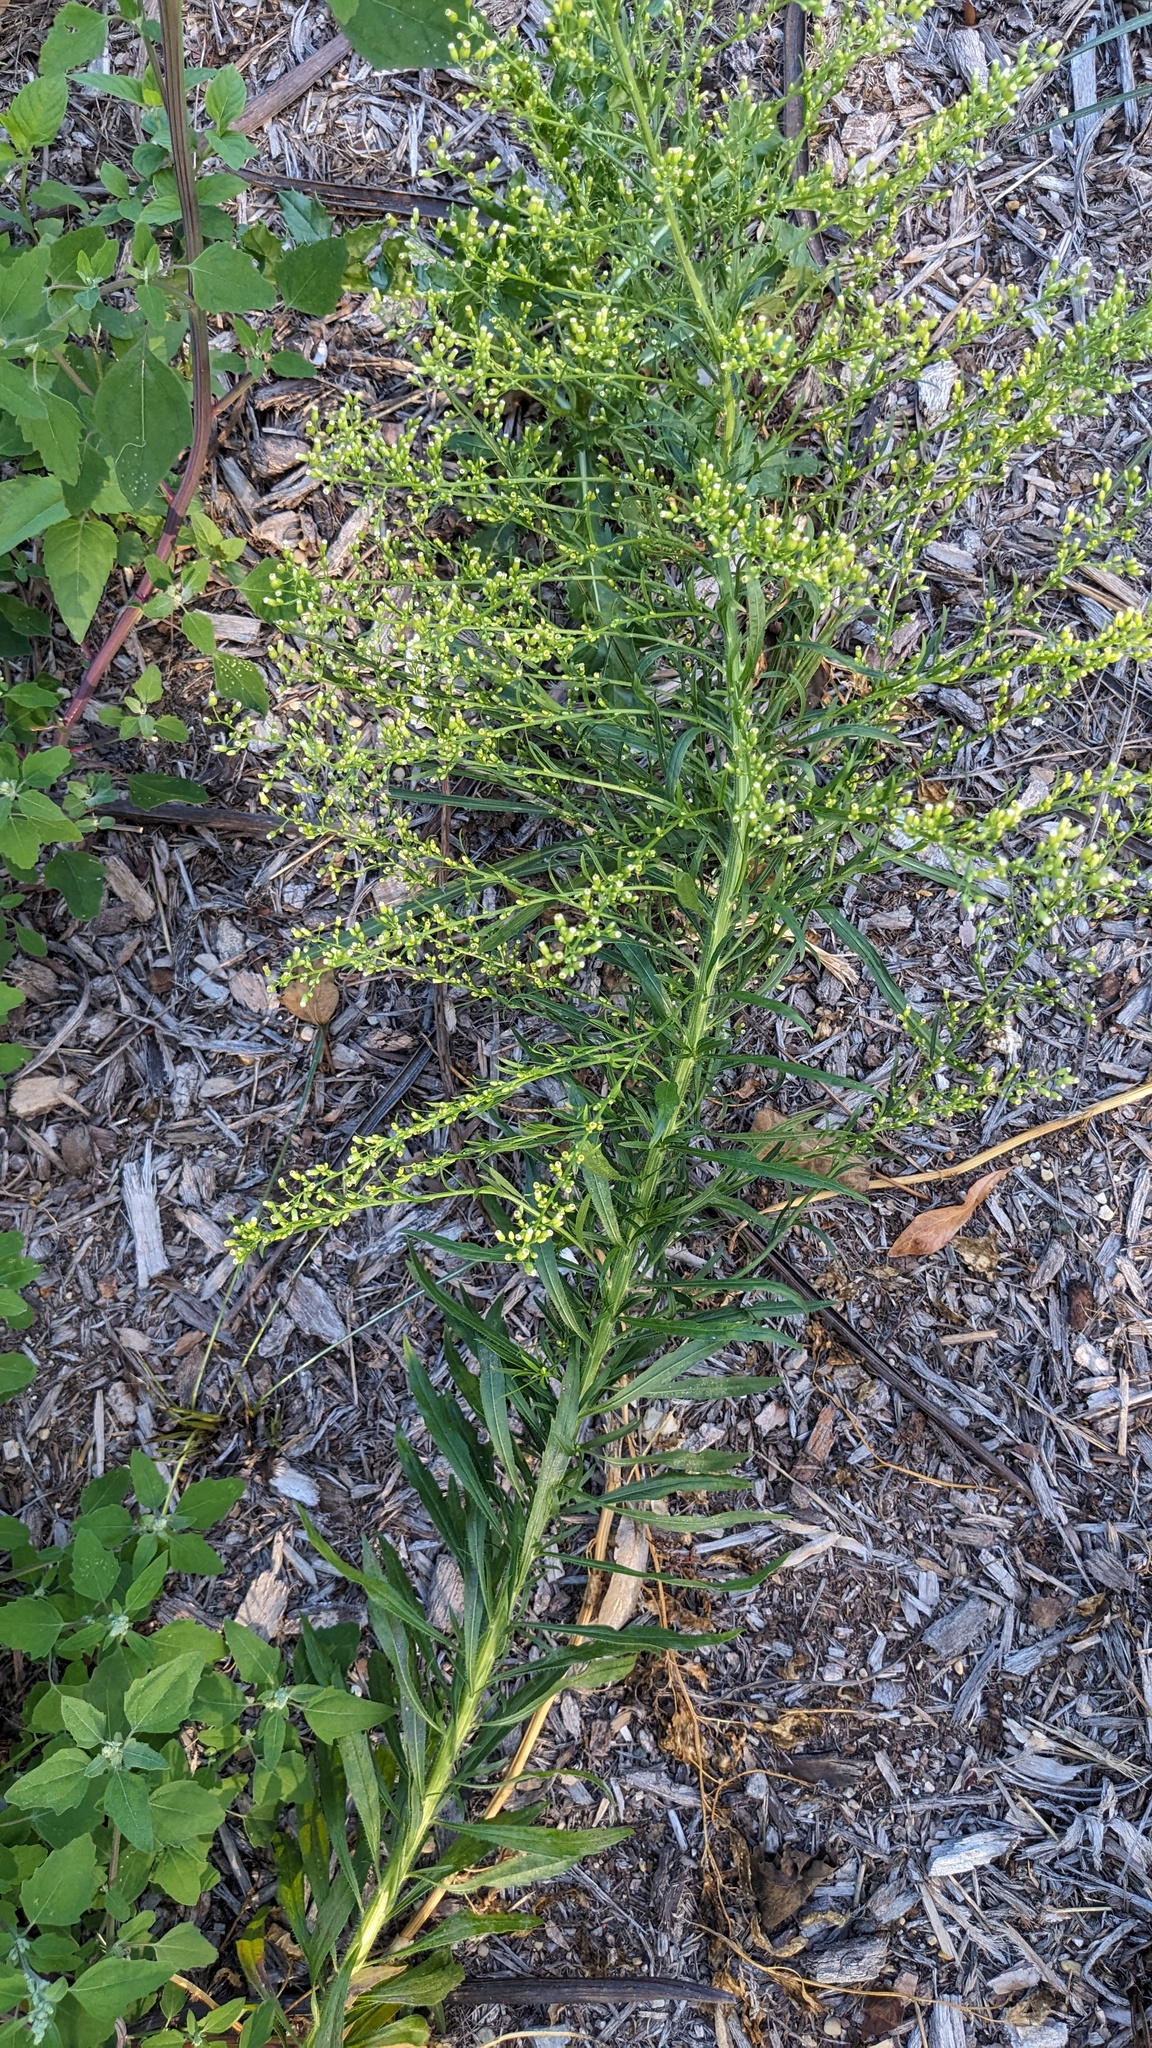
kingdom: Plantae
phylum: Tracheophyta
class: Magnoliopsida
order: Asterales
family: Asteraceae
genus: Erigeron
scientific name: Erigeron canadensis
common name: Canadian fleabane
